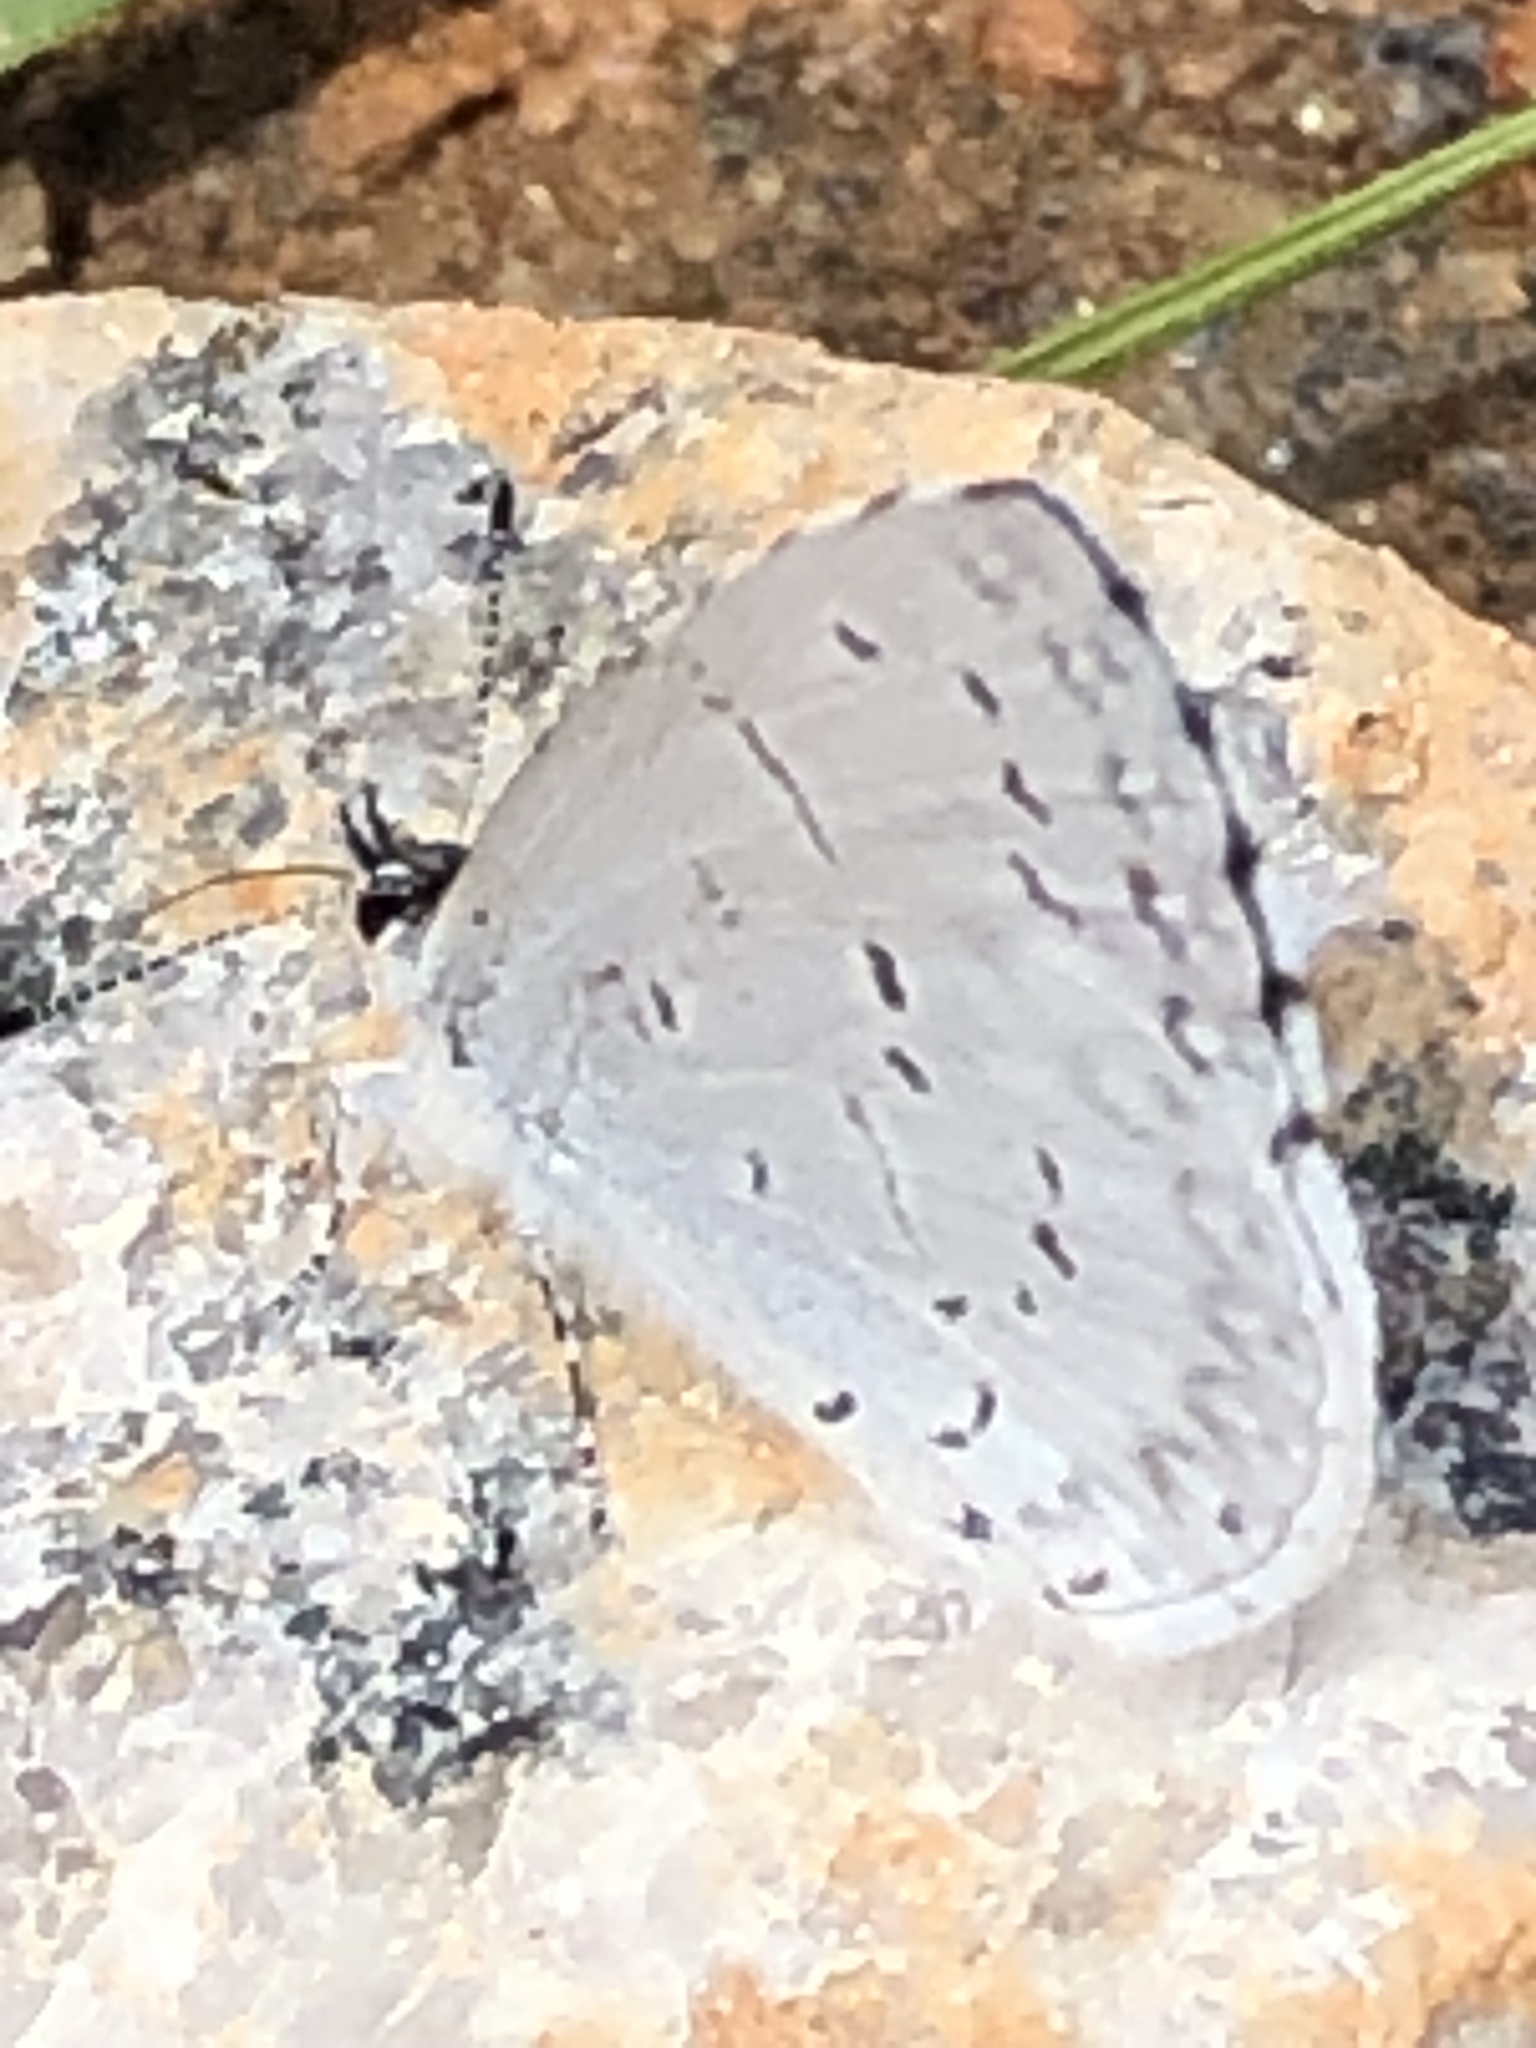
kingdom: Animalia
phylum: Arthropoda
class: Insecta
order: Lepidoptera
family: Lycaenidae
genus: Celastrina
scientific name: Celastrina
